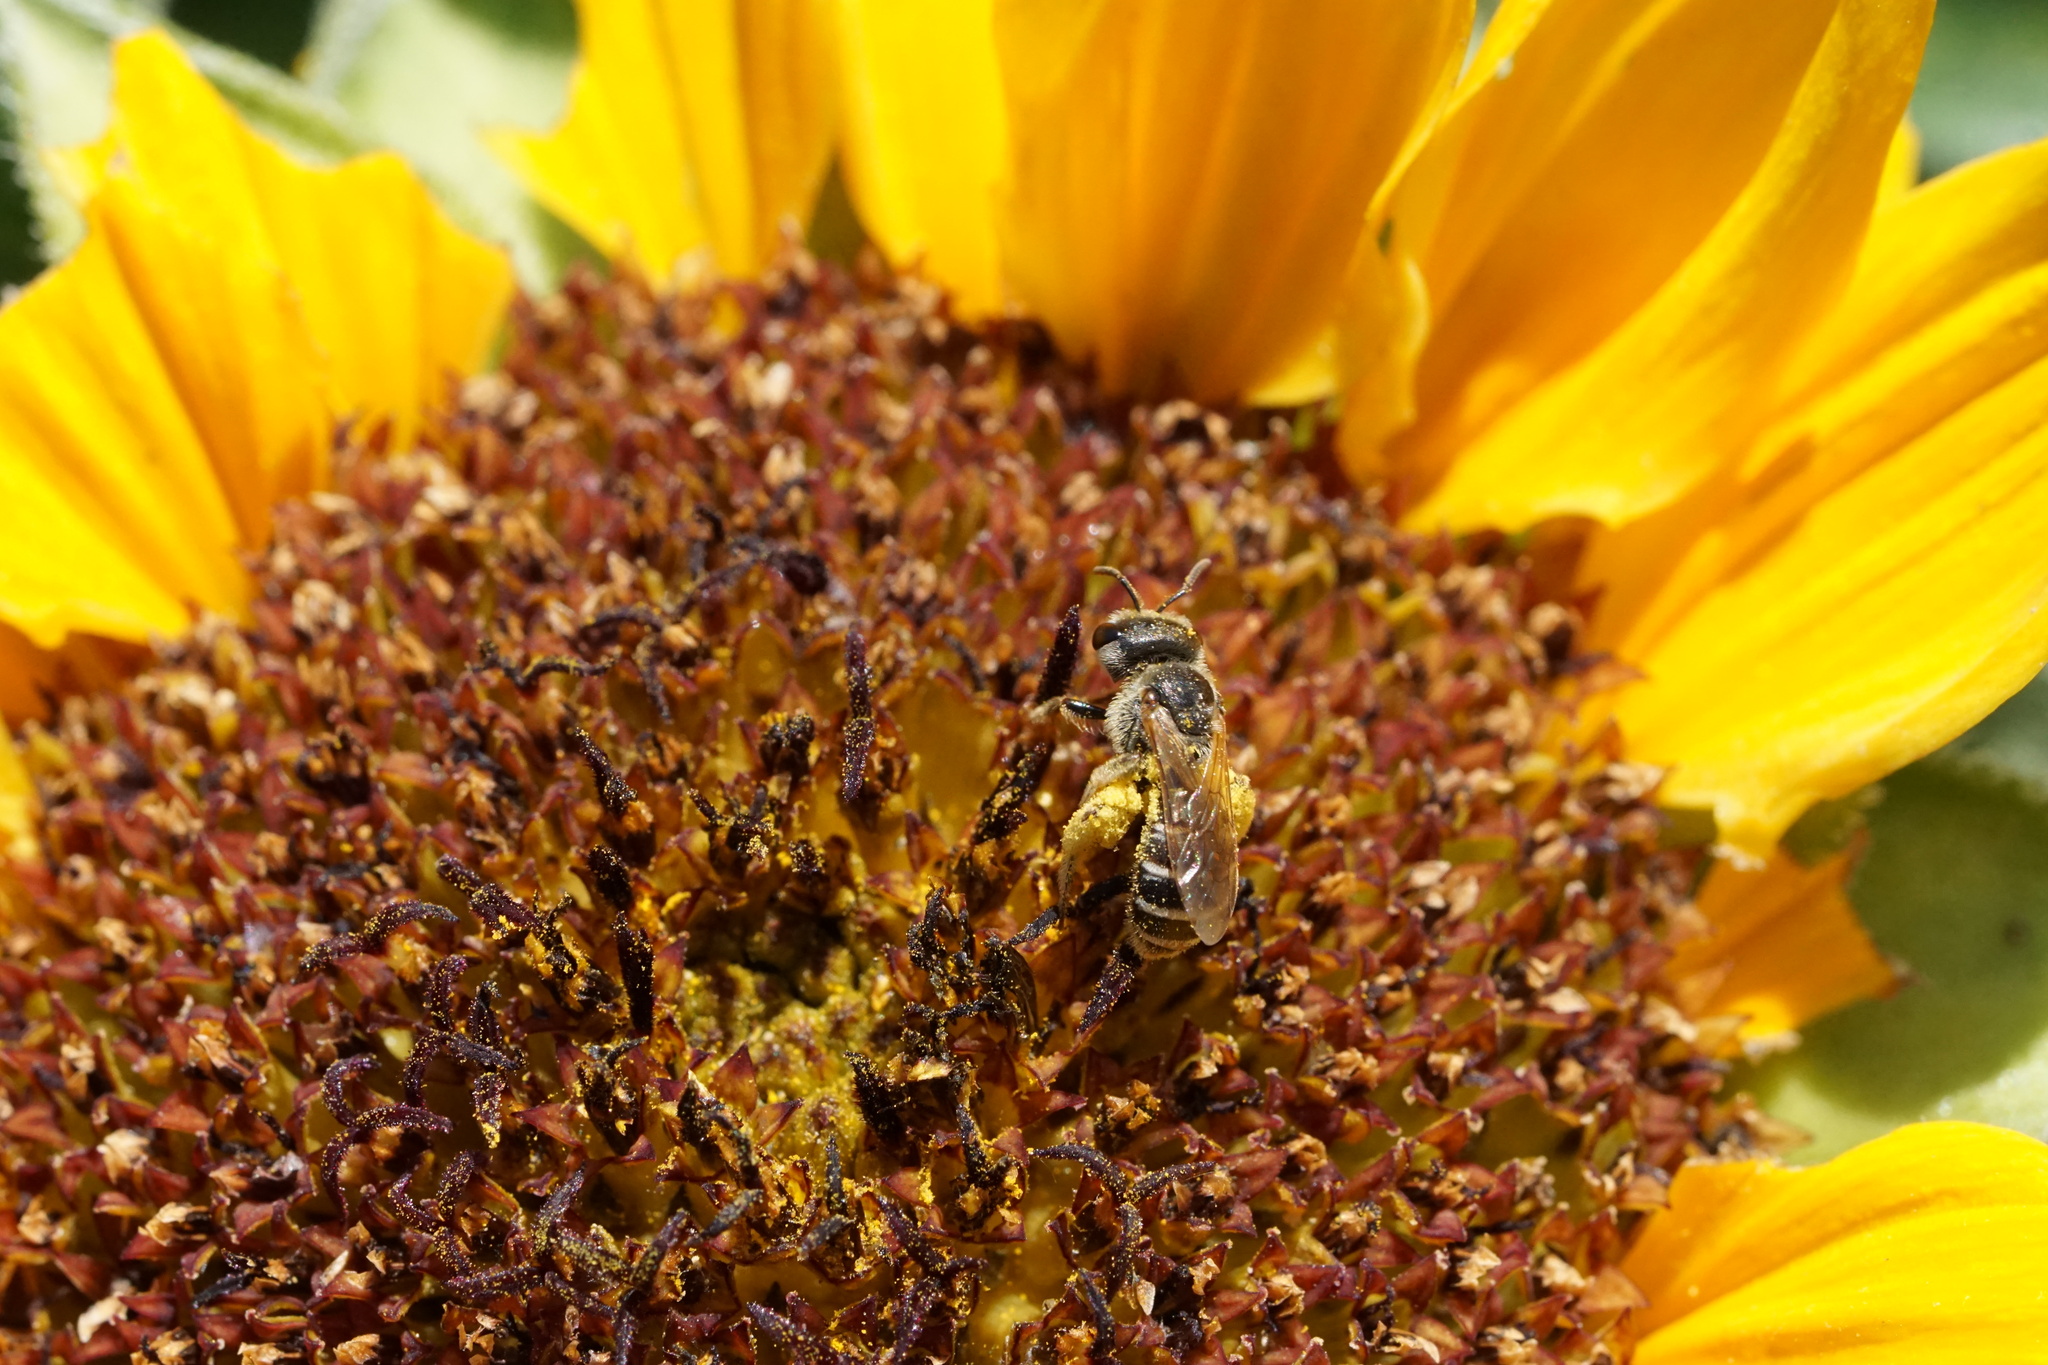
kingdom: Animalia
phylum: Arthropoda
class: Insecta
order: Hymenoptera
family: Halictidae
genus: Halictus
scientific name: Halictus ligatus
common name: Ligated furrow bee
